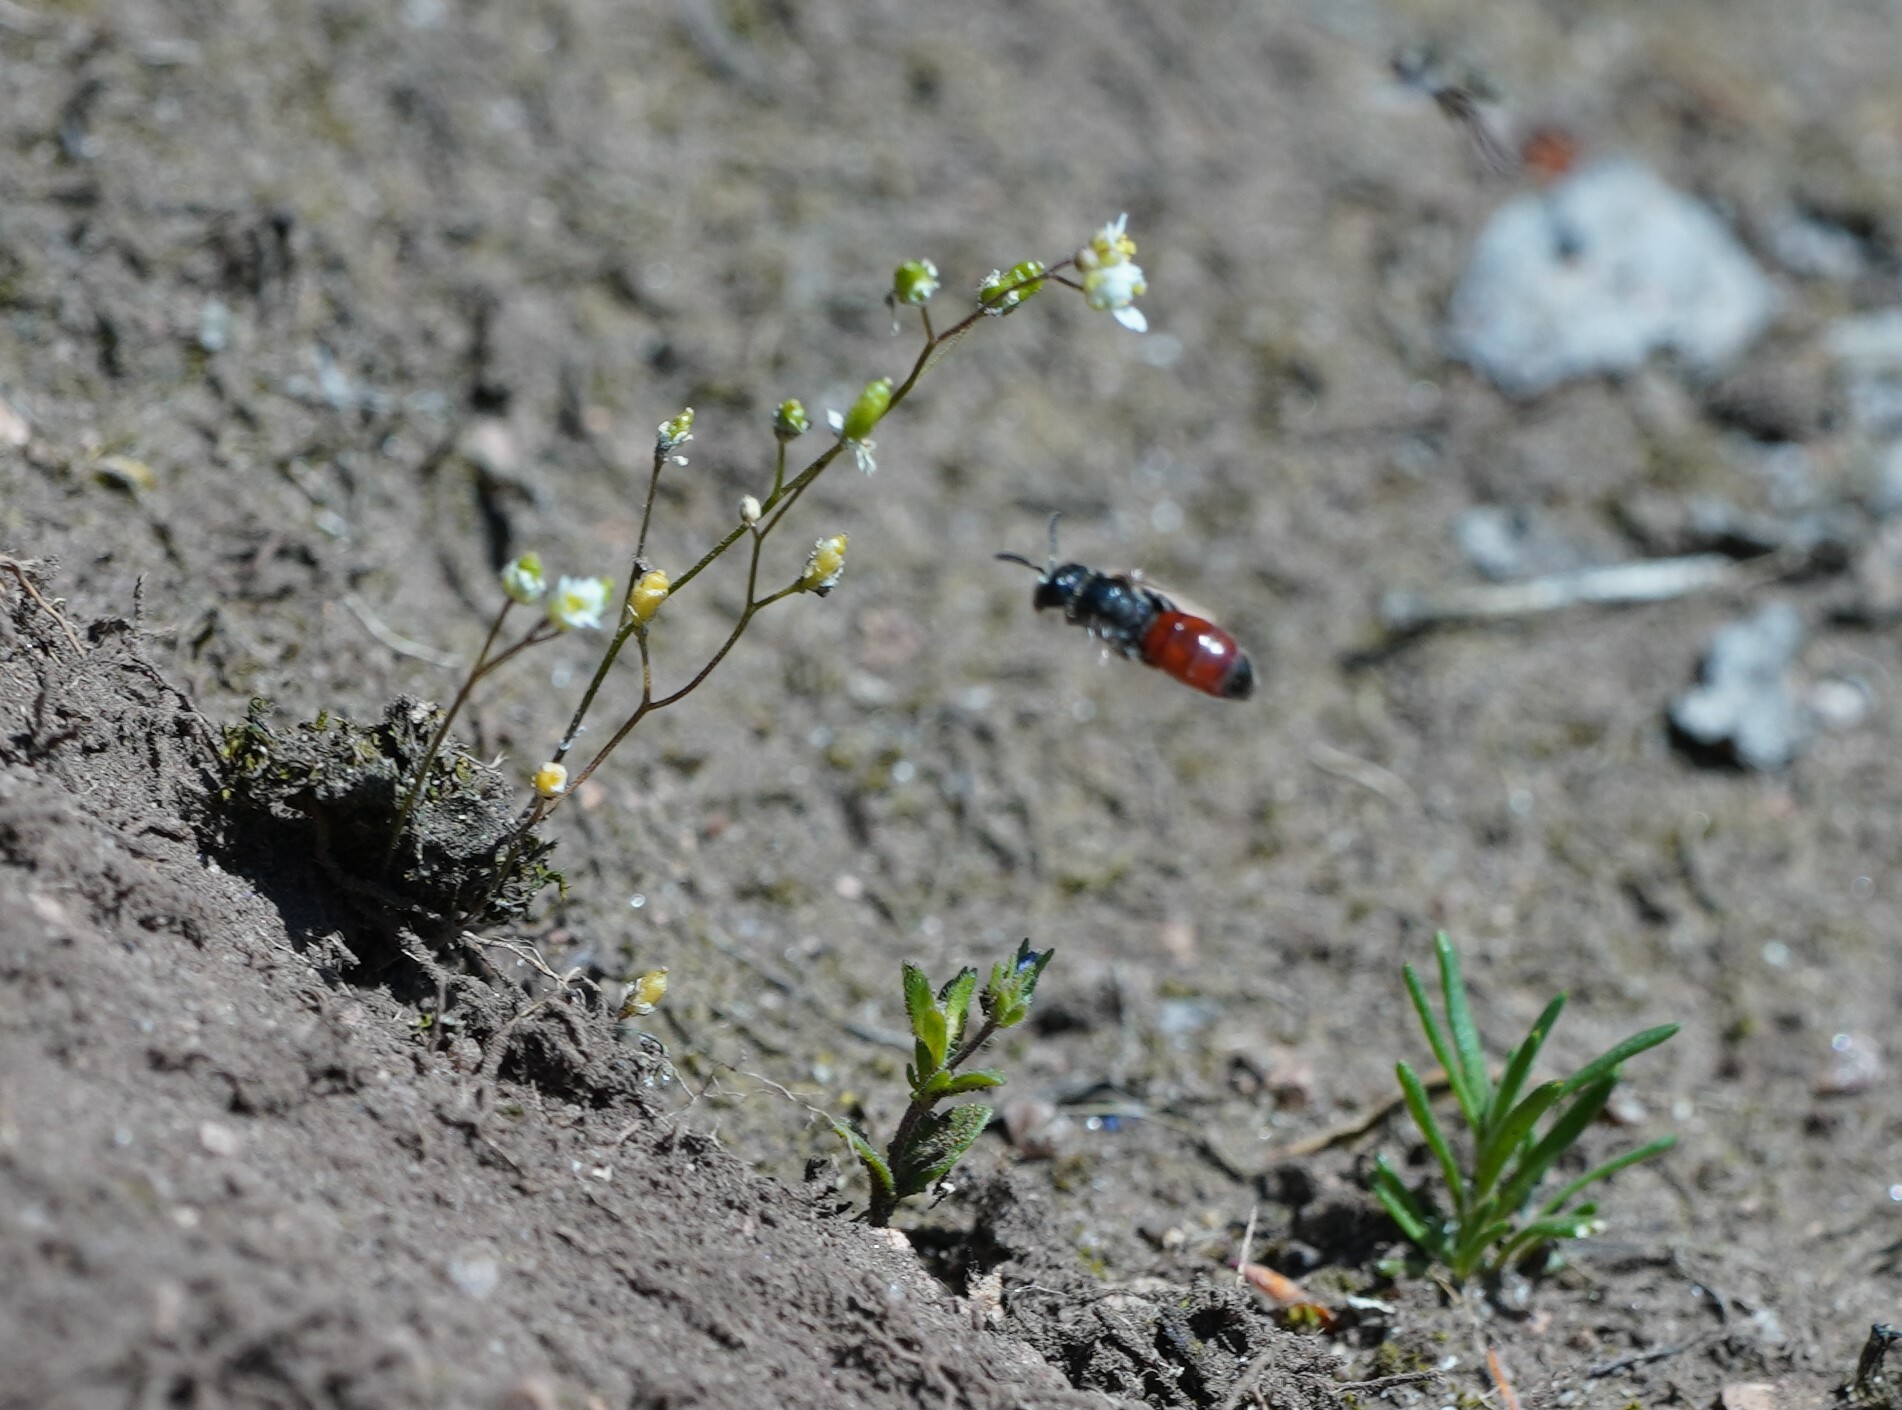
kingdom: Animalia
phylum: Arthropoda
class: Insecta
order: Hymenoptera
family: Halictidae
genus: Sphecodes
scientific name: Sphecodes
